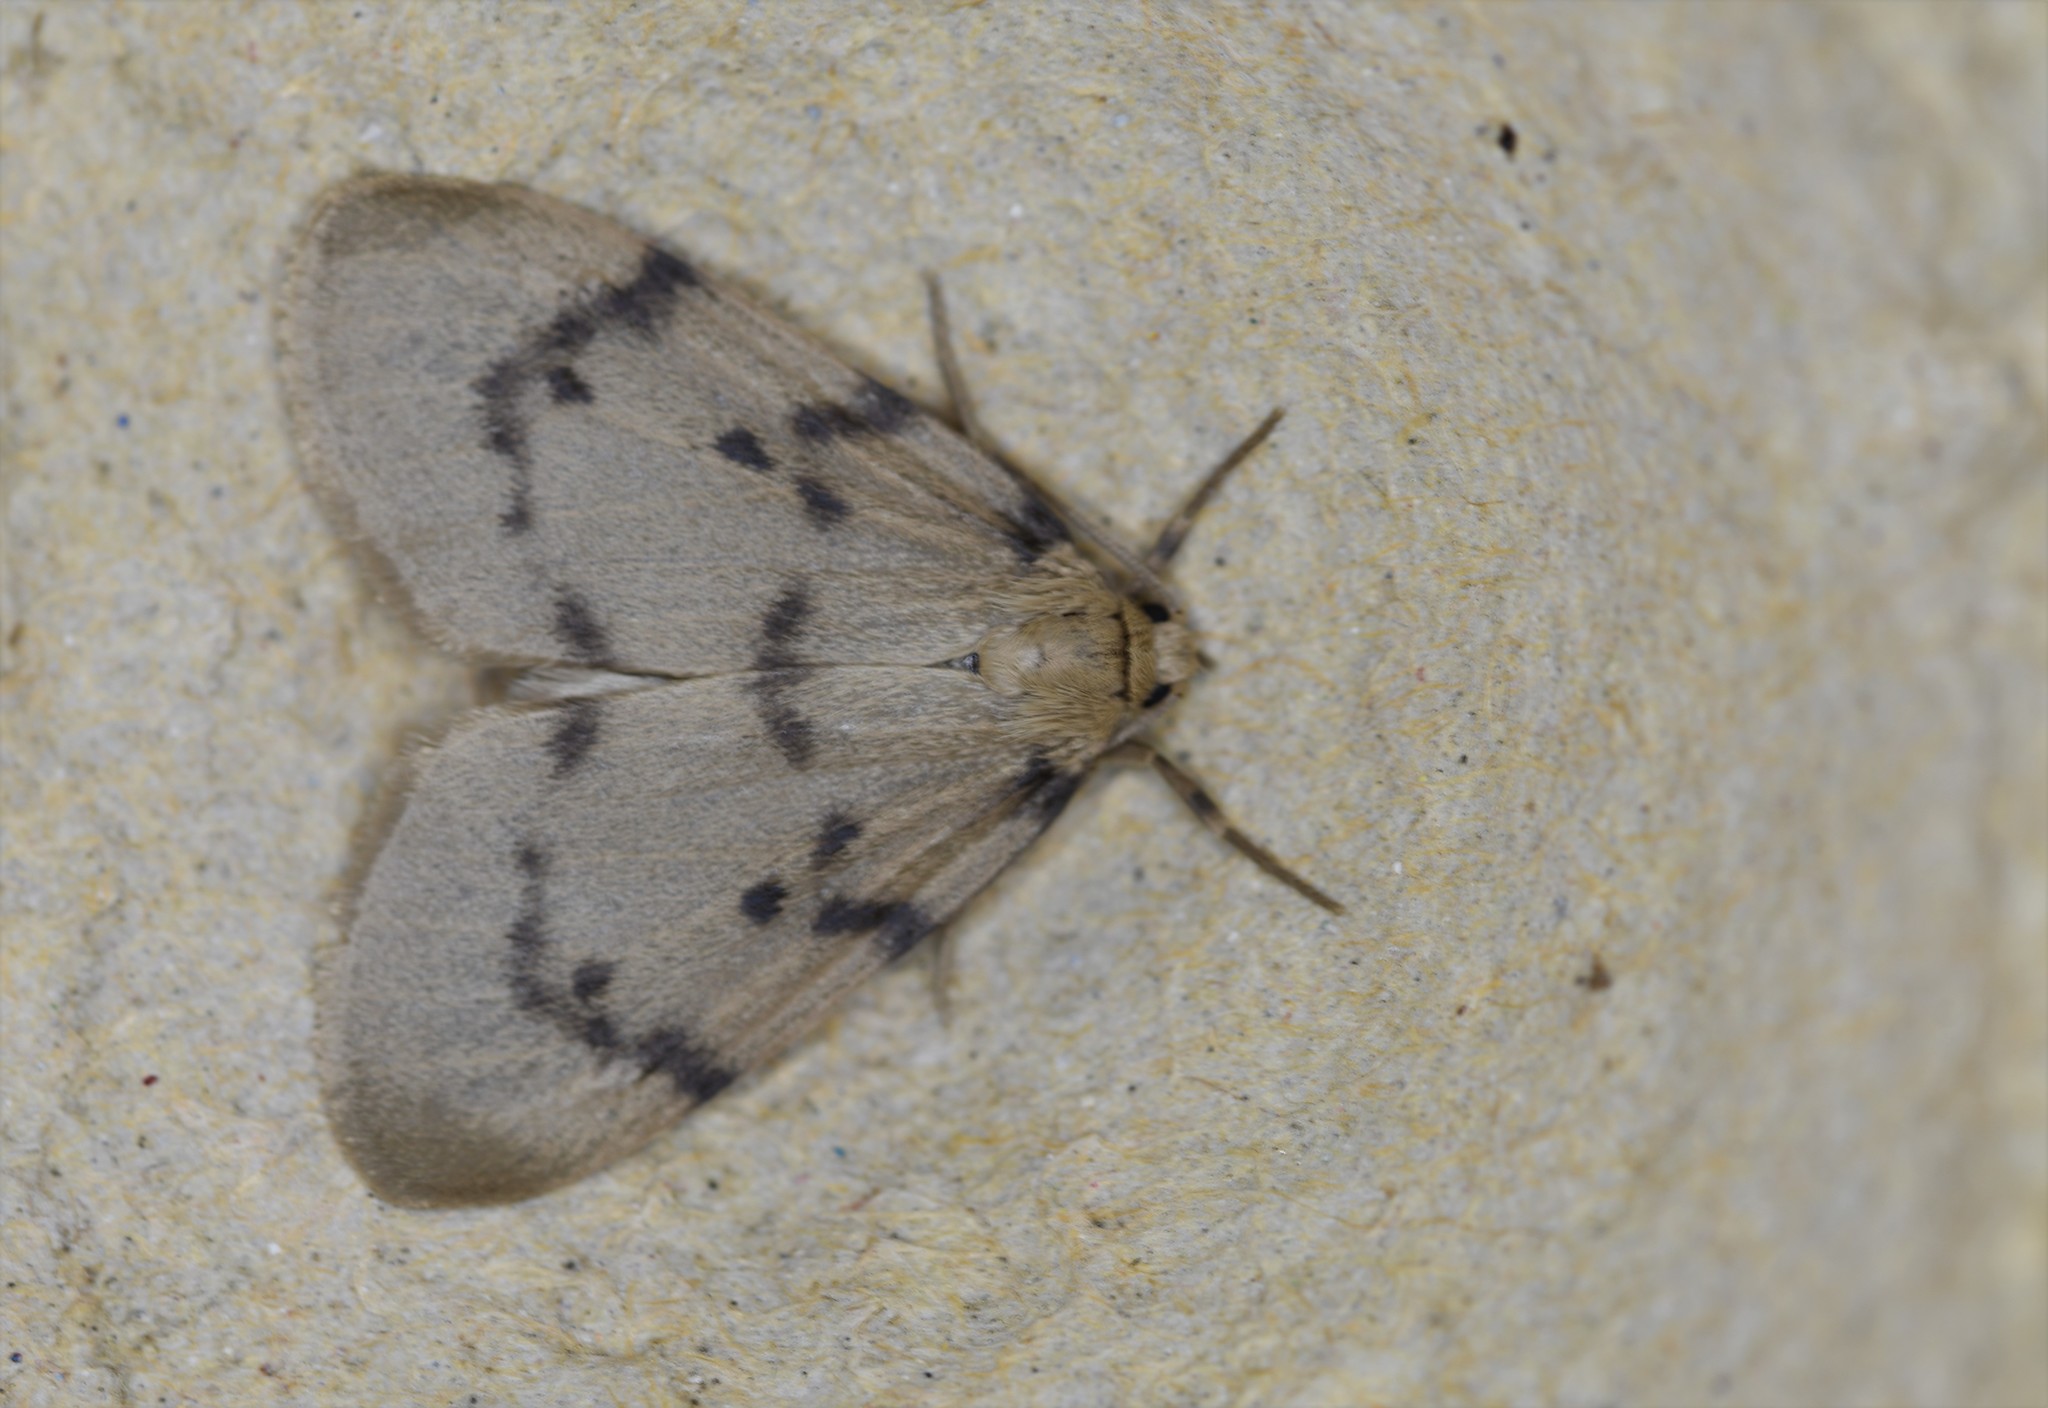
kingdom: Animalia
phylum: Arthropoda
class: Insecta
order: Lepidoptera
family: Erebidae
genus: Paidia
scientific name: Paidia rica
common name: Glaucous muslin
